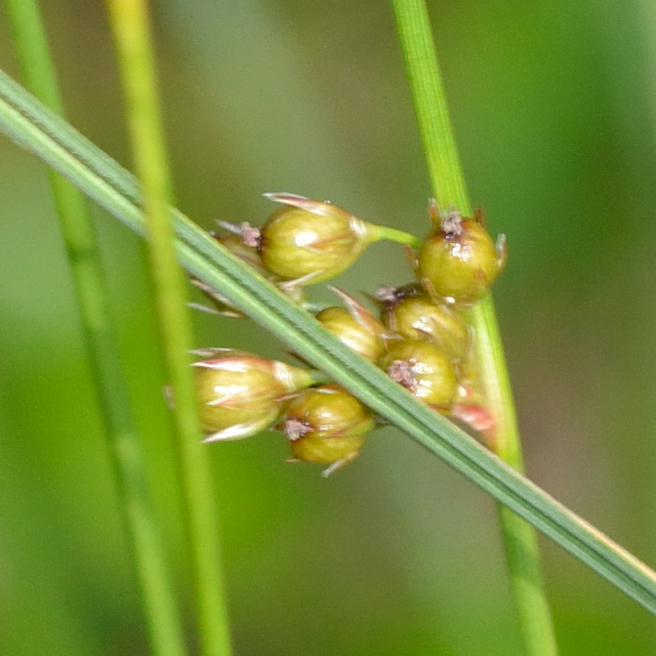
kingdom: Plantae
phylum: Tracheophyta
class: Liliopsida
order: Poales
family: Juncaceae
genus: Juncus
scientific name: Juncus filiformis
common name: Thread rush
